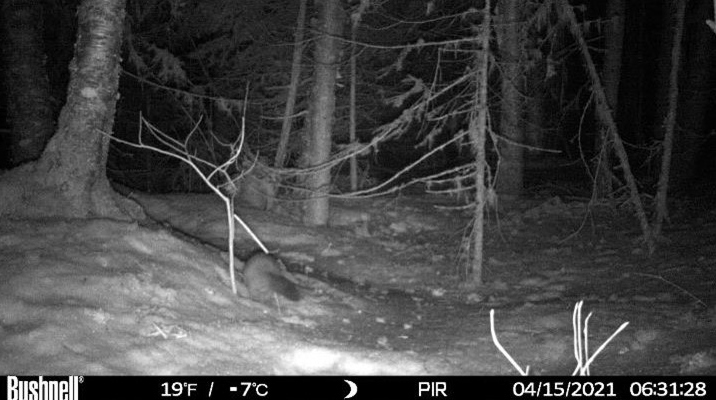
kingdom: Animalia
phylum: Chordata
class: Mammalia
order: Carnivora
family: Mustelidae
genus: Martes
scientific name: Martes americana
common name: American marten
